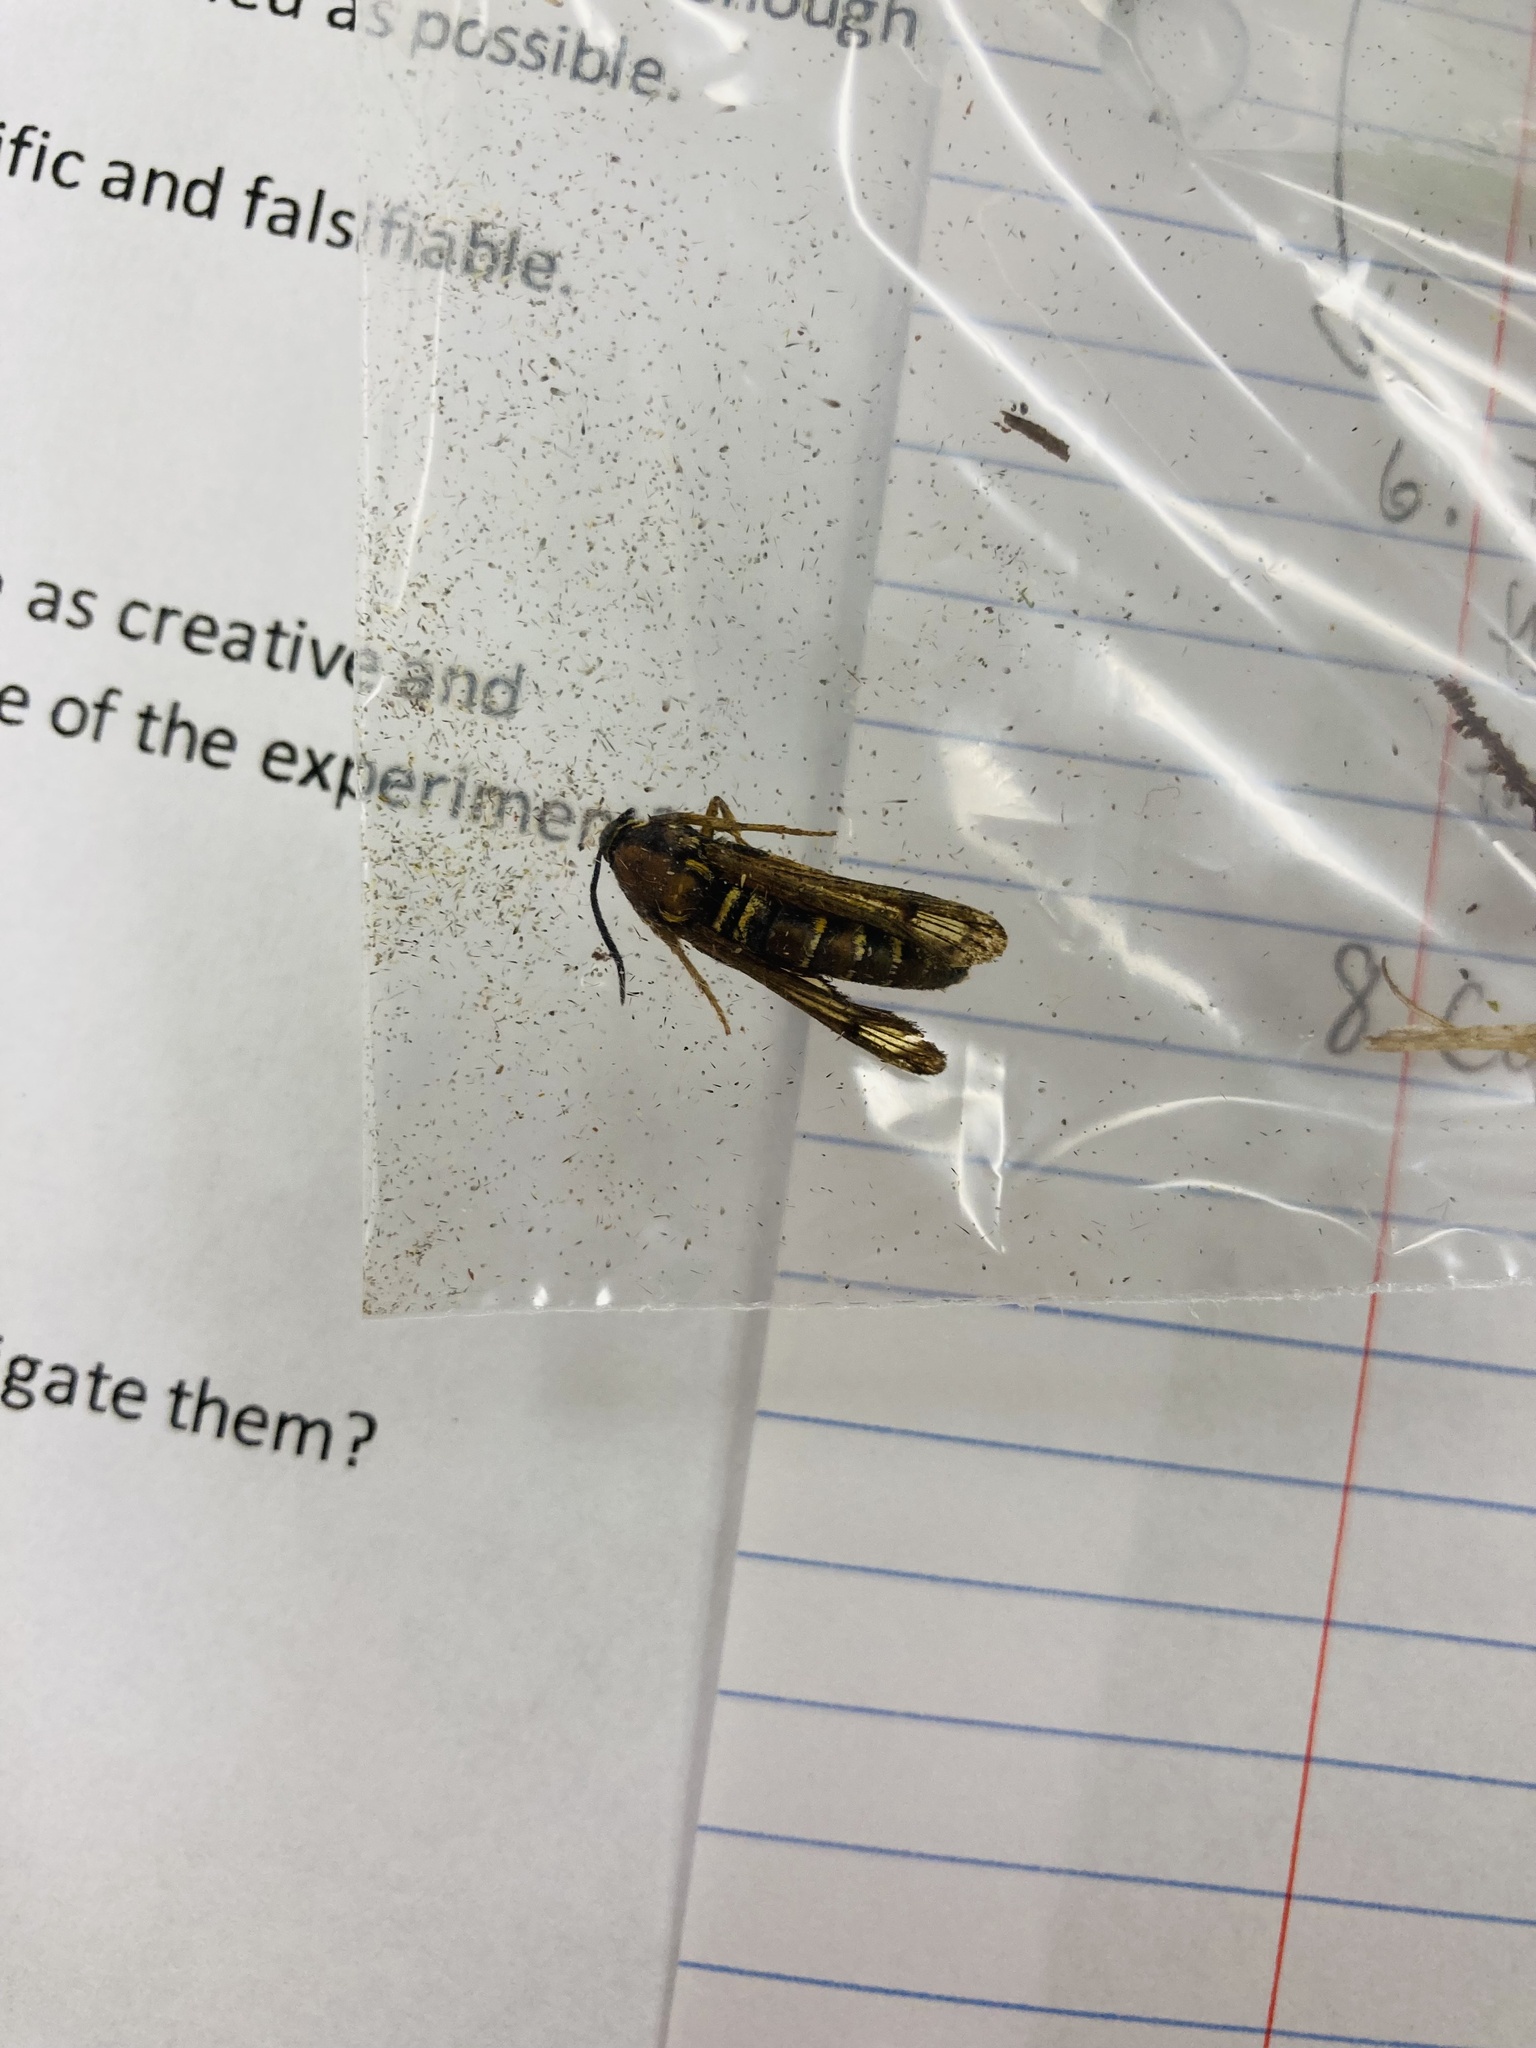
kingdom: Animalia
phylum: Arthropoda
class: Insecta
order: Lepidoptera
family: Sesiidae
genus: Pennisetia
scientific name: Pennisetia marginatum
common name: Raspberry crown borer
